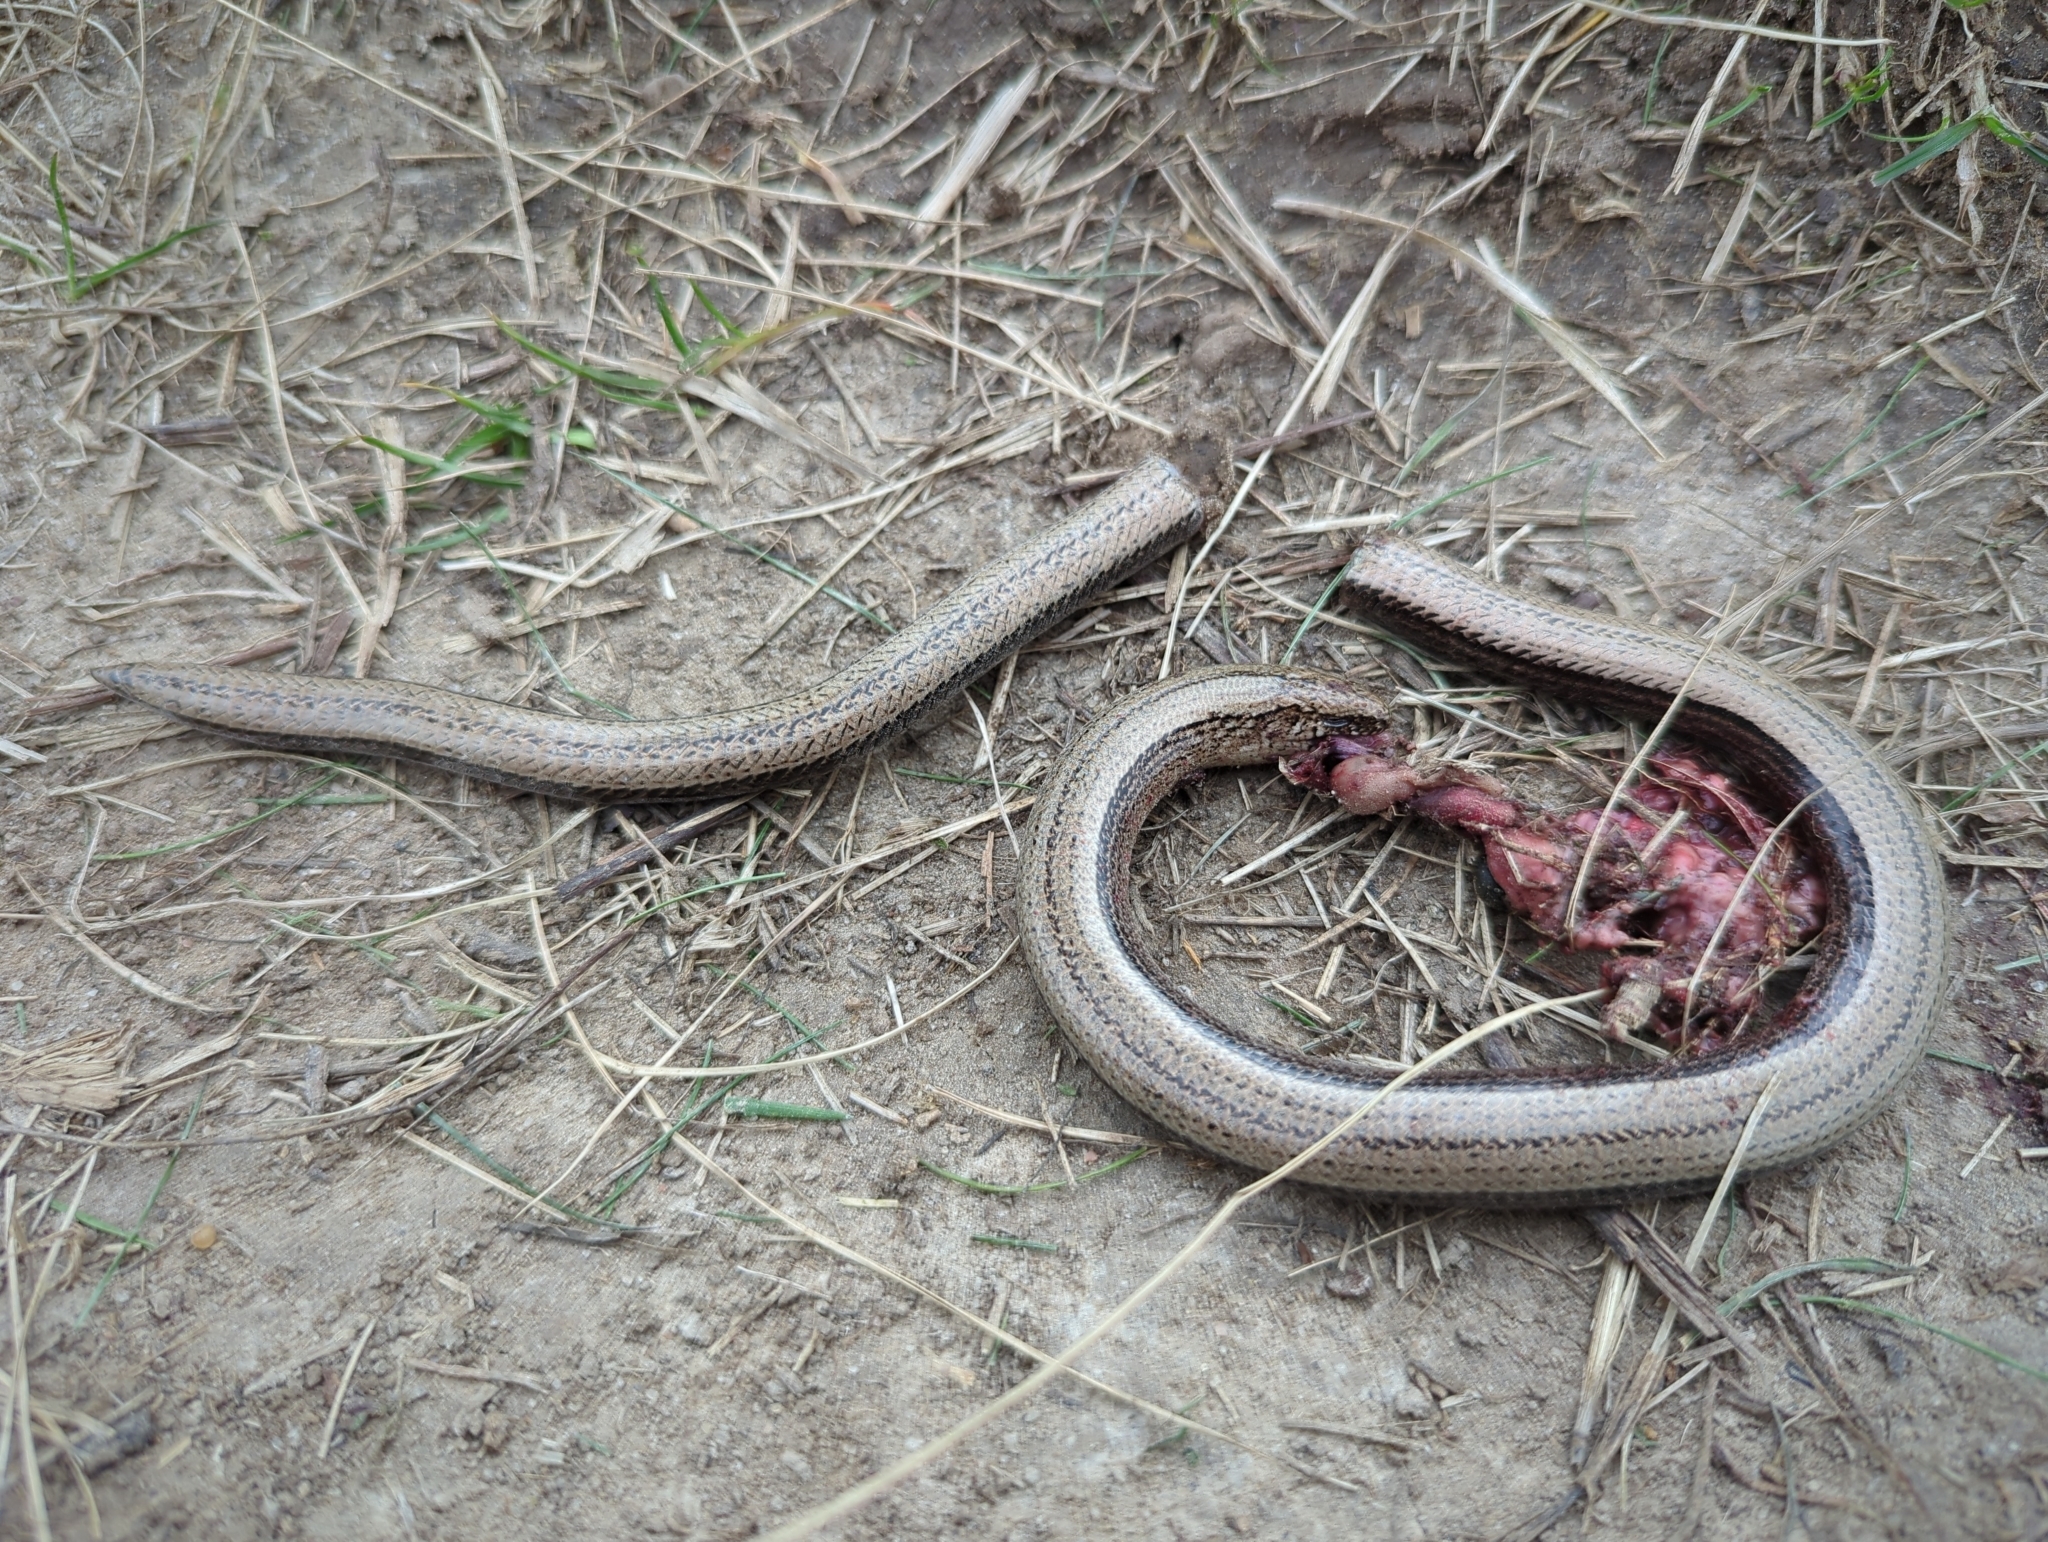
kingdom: Animalia
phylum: Chordata
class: Squamata
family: Anguidae
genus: Anguis
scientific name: Anguis fragilis
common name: Slow worm
